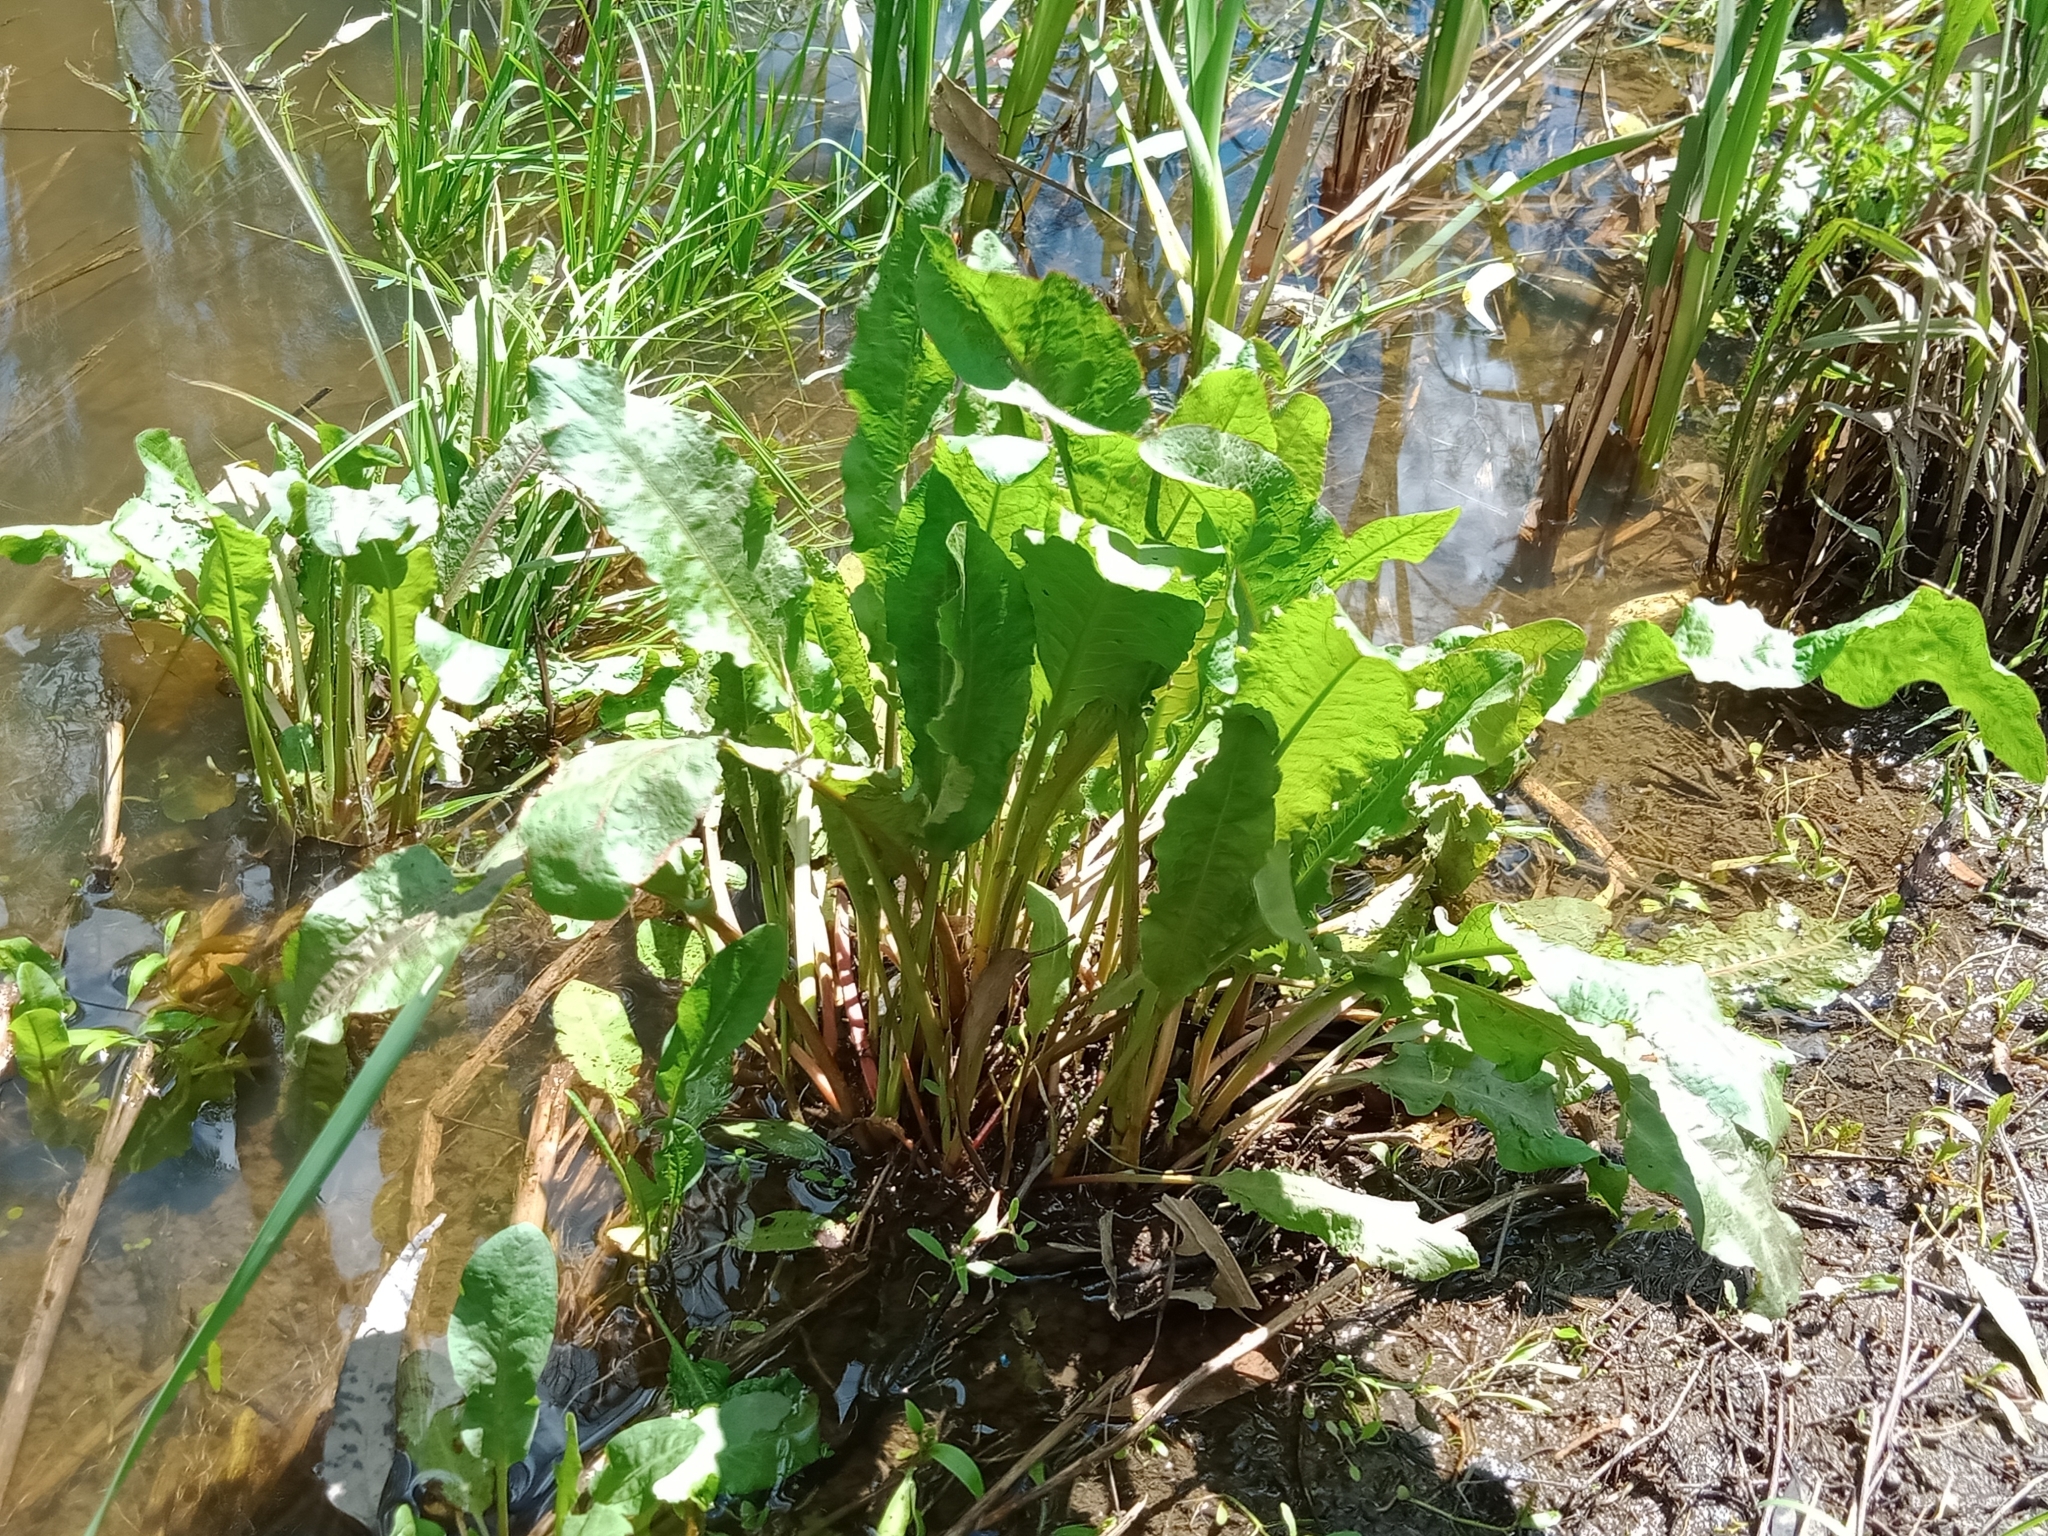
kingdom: Plantae
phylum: Tracheophyta
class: Magnoliopsida
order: Caryophyllales
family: Polygonaceae
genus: Rumex
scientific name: Rumex crispus
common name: Curled dock
